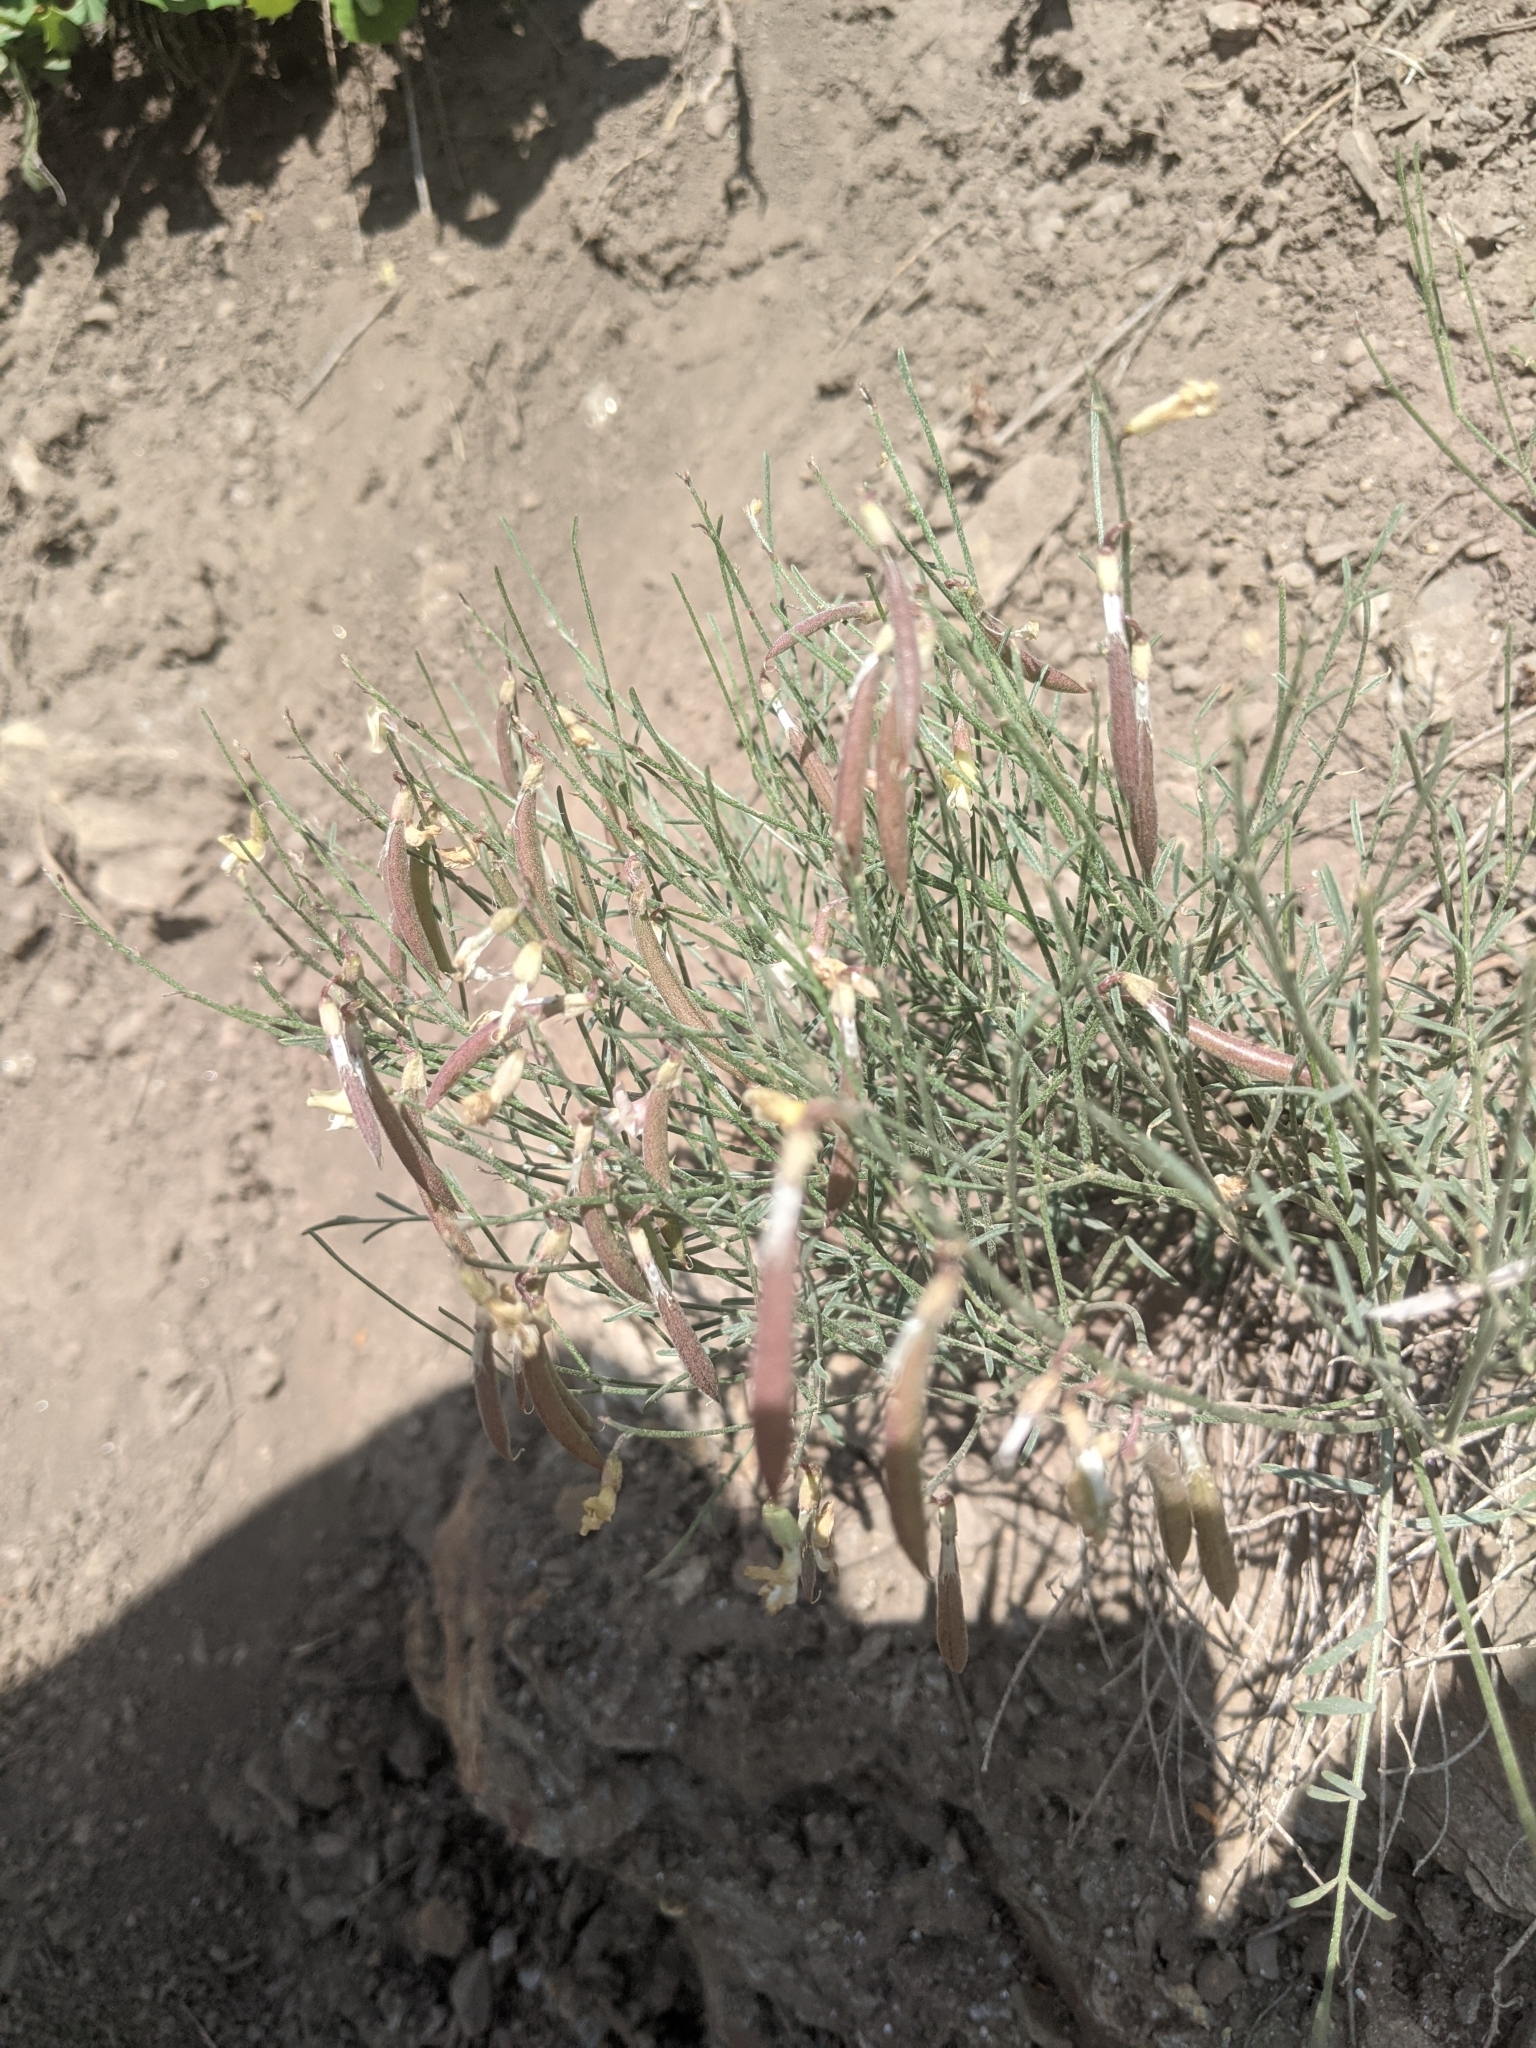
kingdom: Plantae
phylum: Tracheophyta
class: Magnoliopsida
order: Fabales
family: Fabaceae
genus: Astragalus
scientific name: Astragalus convallarius
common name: Lesser rushy milk-vetch
